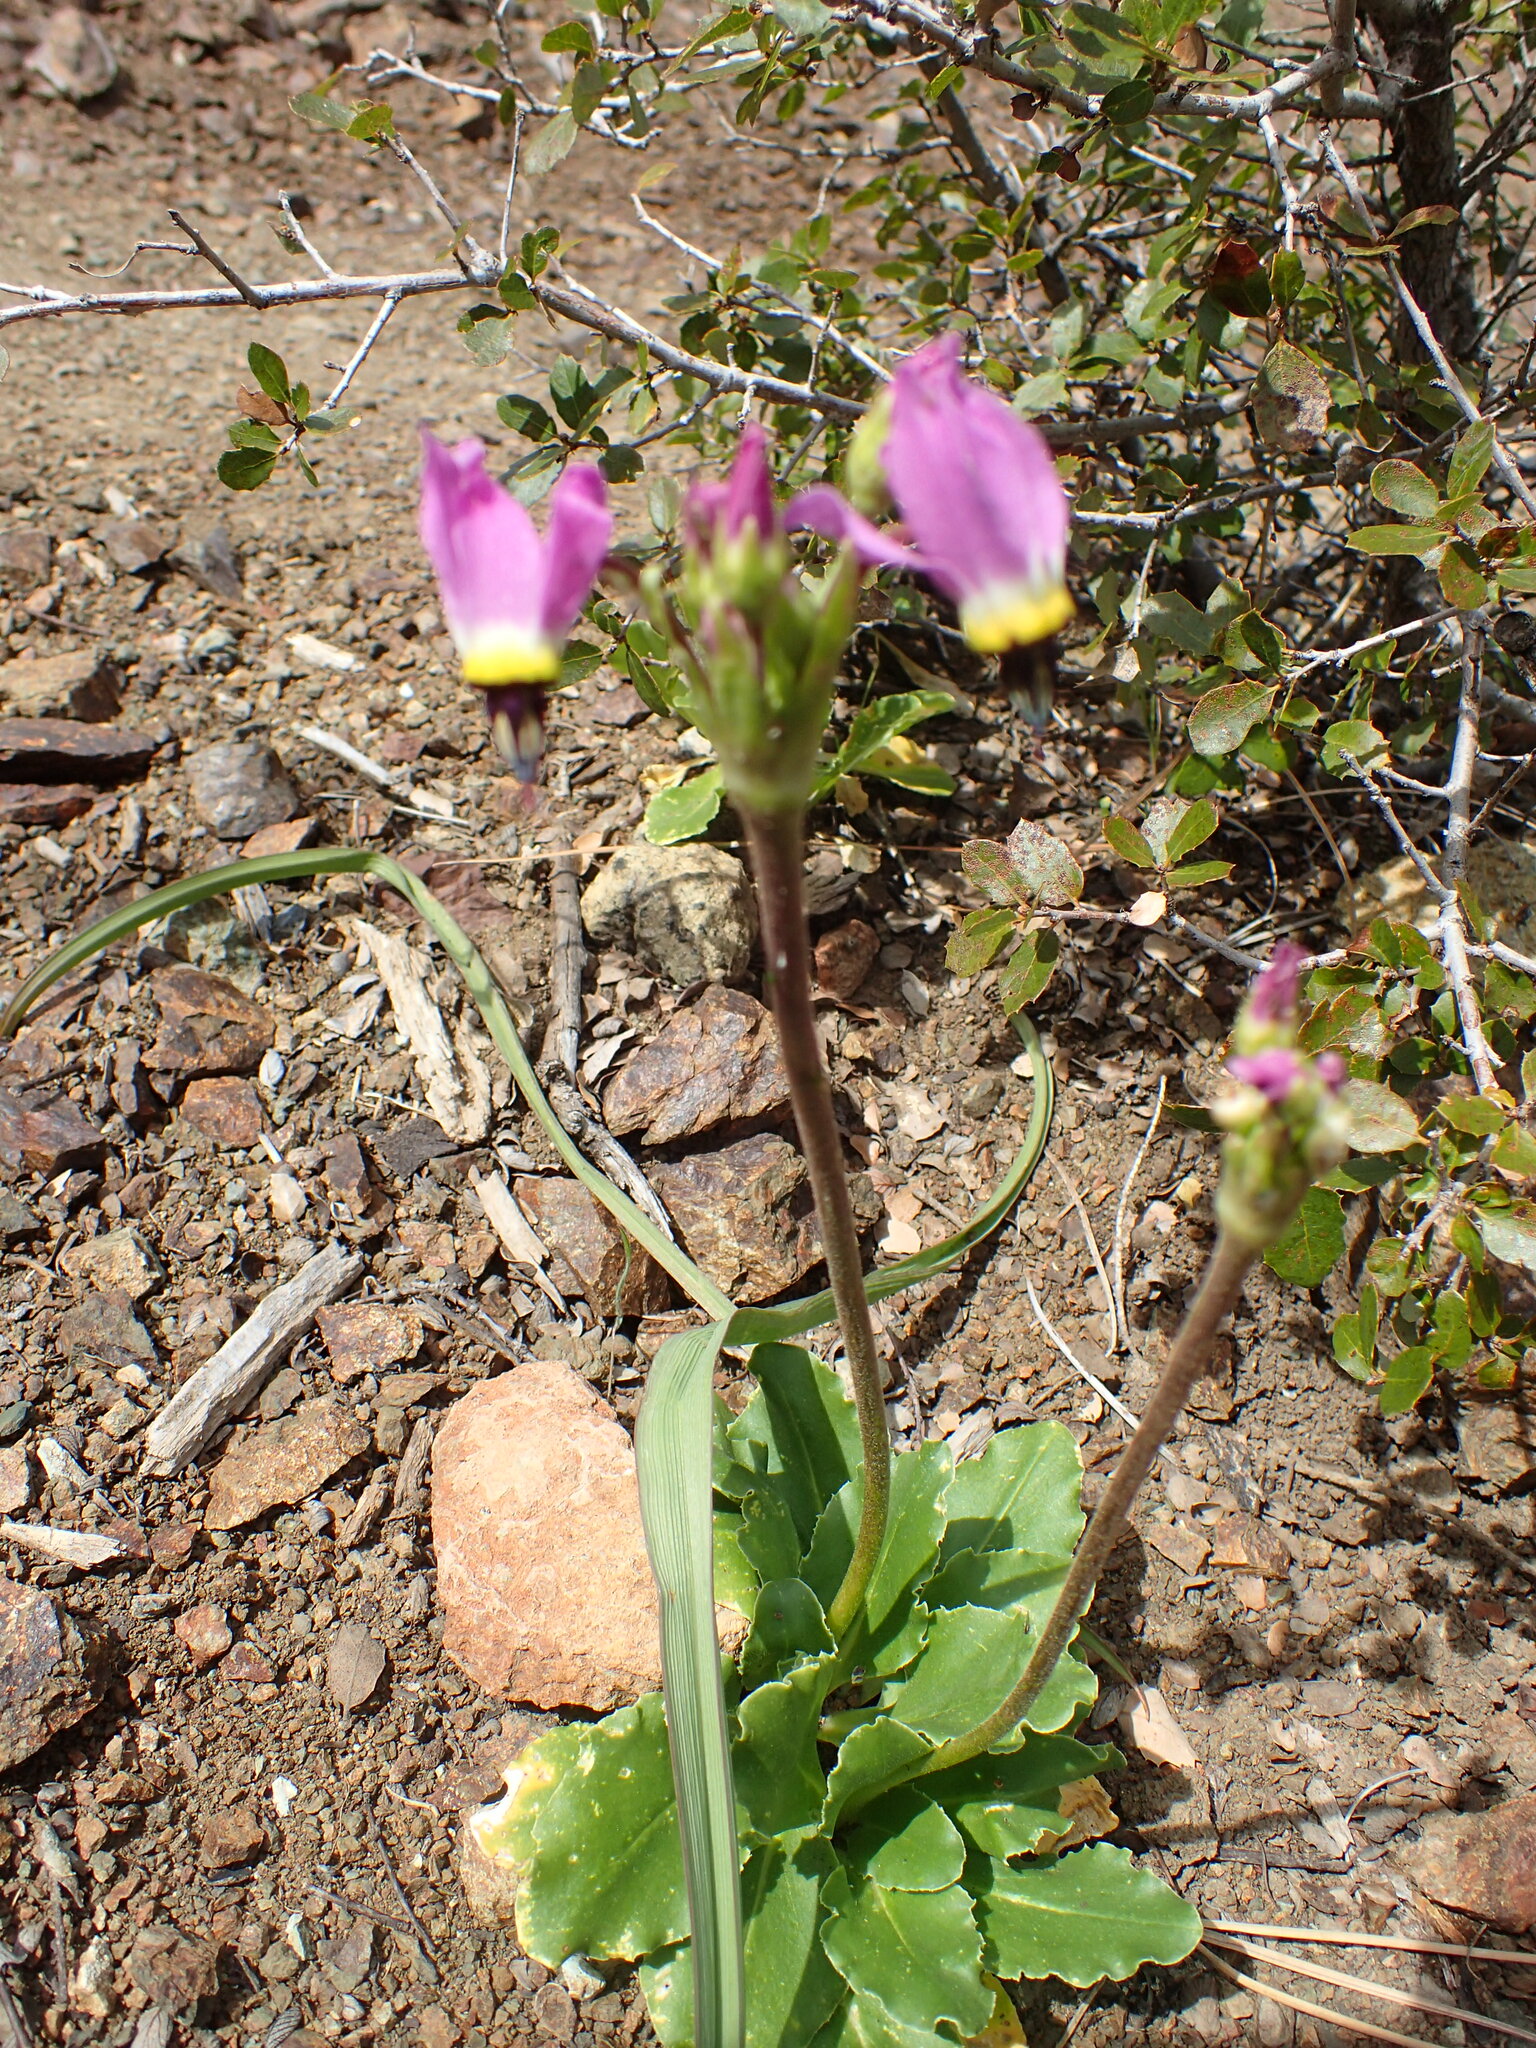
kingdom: Plantae
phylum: Tracheophyta
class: Magnoliopsida
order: Ericales
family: Primulaceae
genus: Dodecatheon
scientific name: Dodecatheon clevelandii
